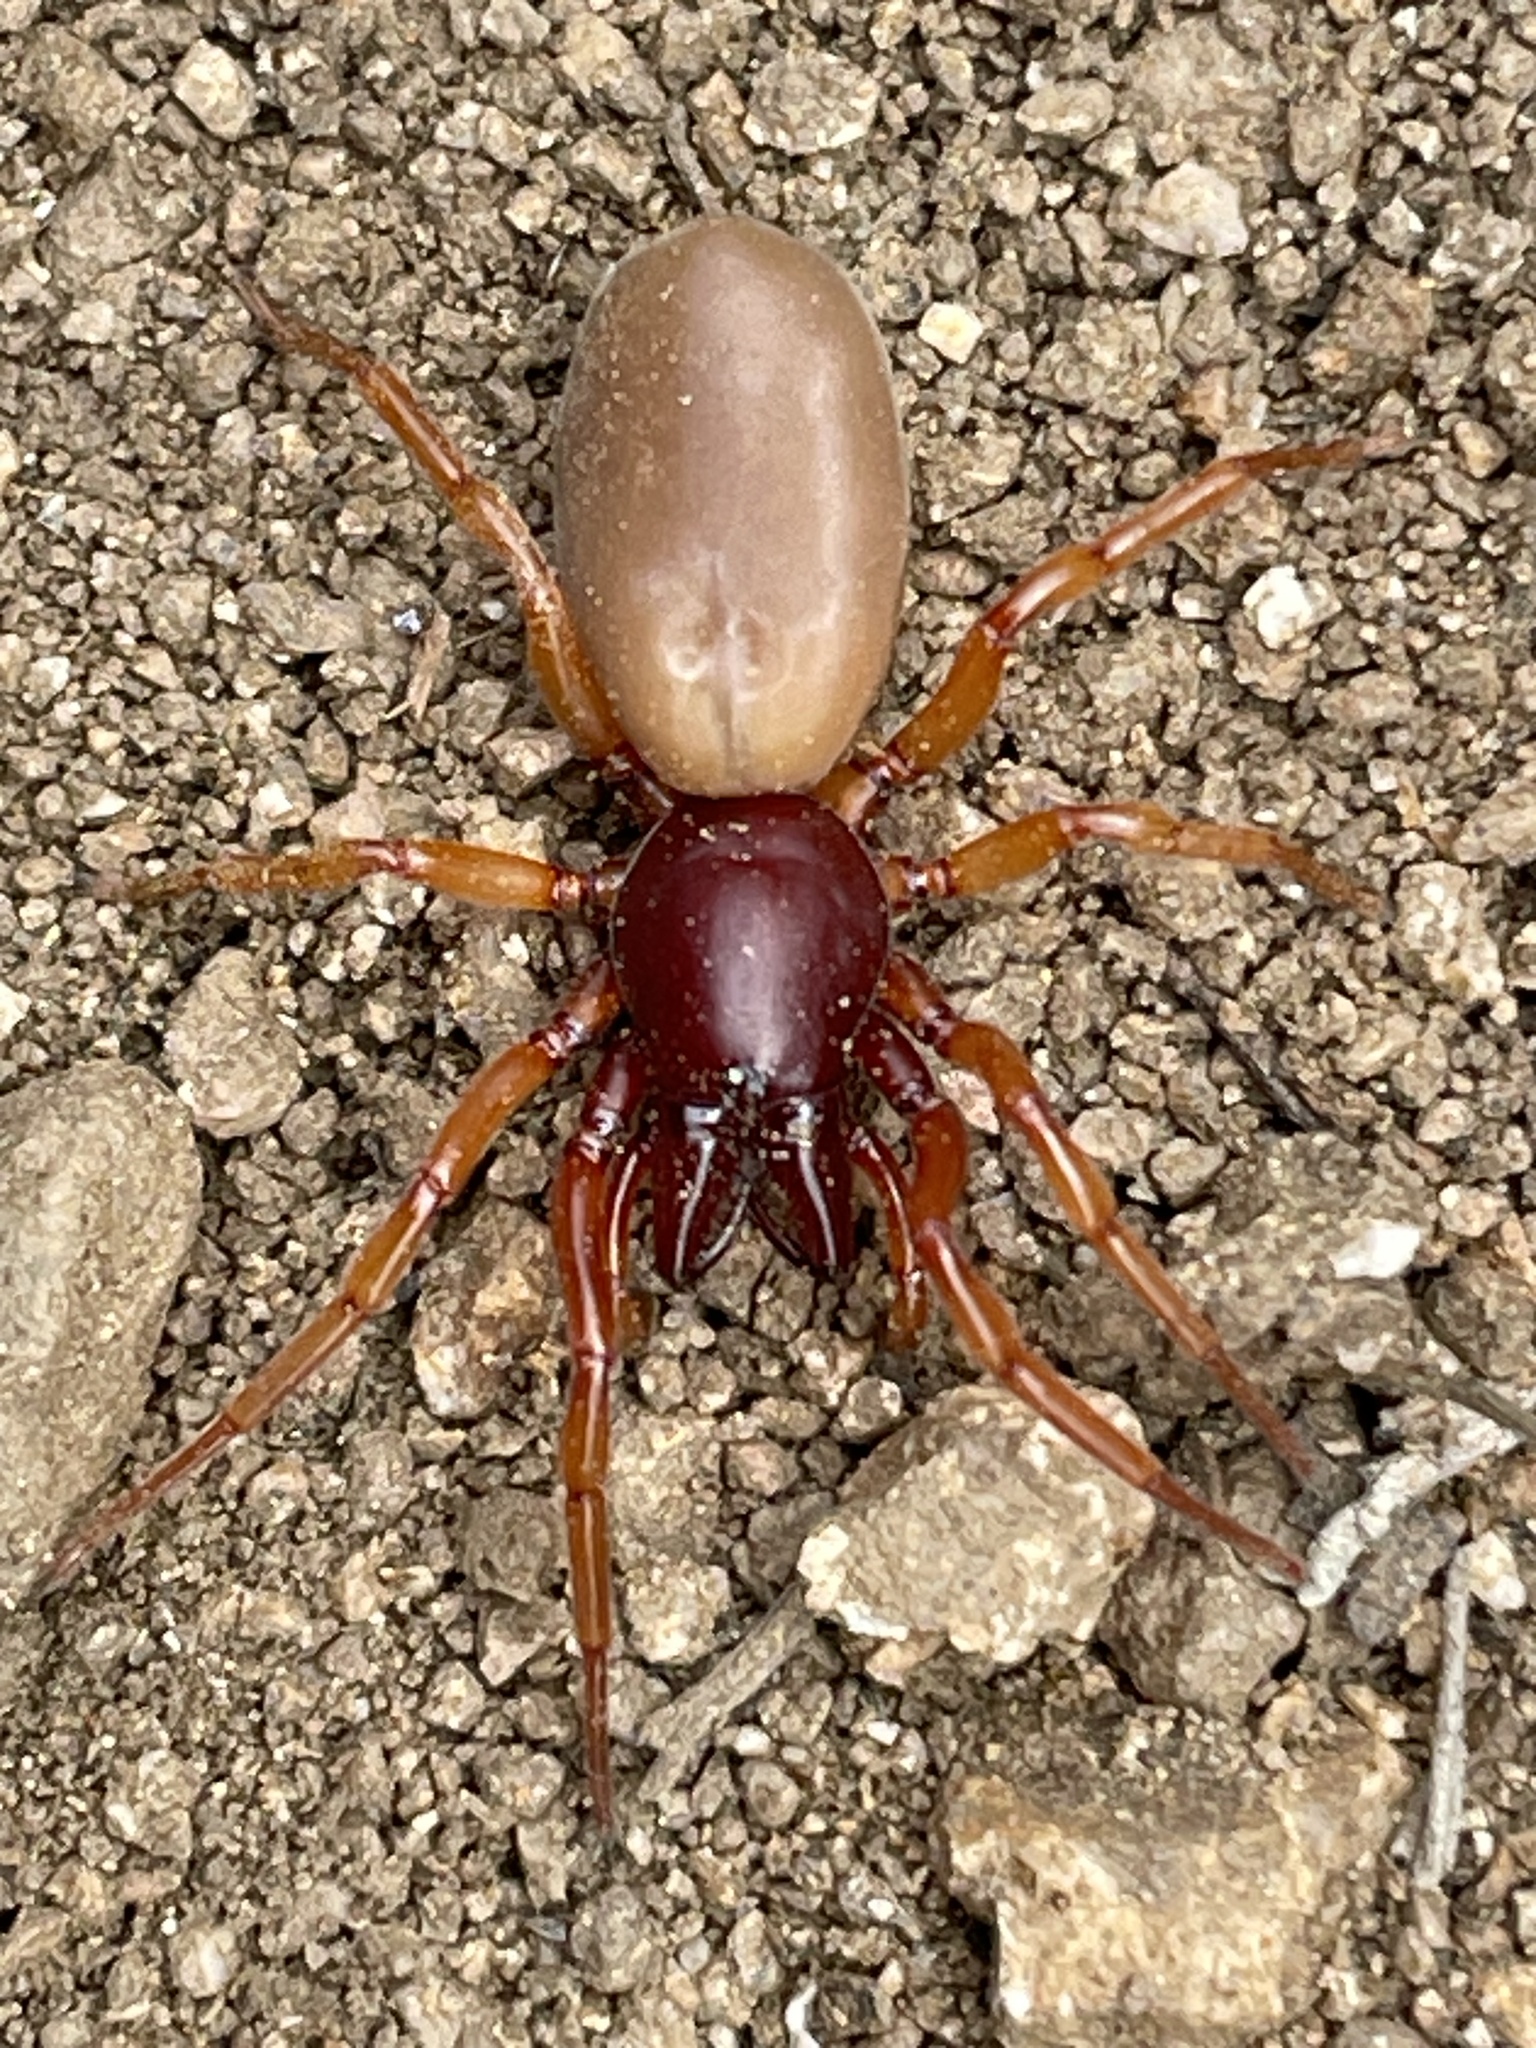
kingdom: Animalia
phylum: Arthropoda
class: Arachnida
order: Araneae
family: Dysderidae
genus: Dysdera
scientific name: Dysdera crocata
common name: Woodlouse spider
